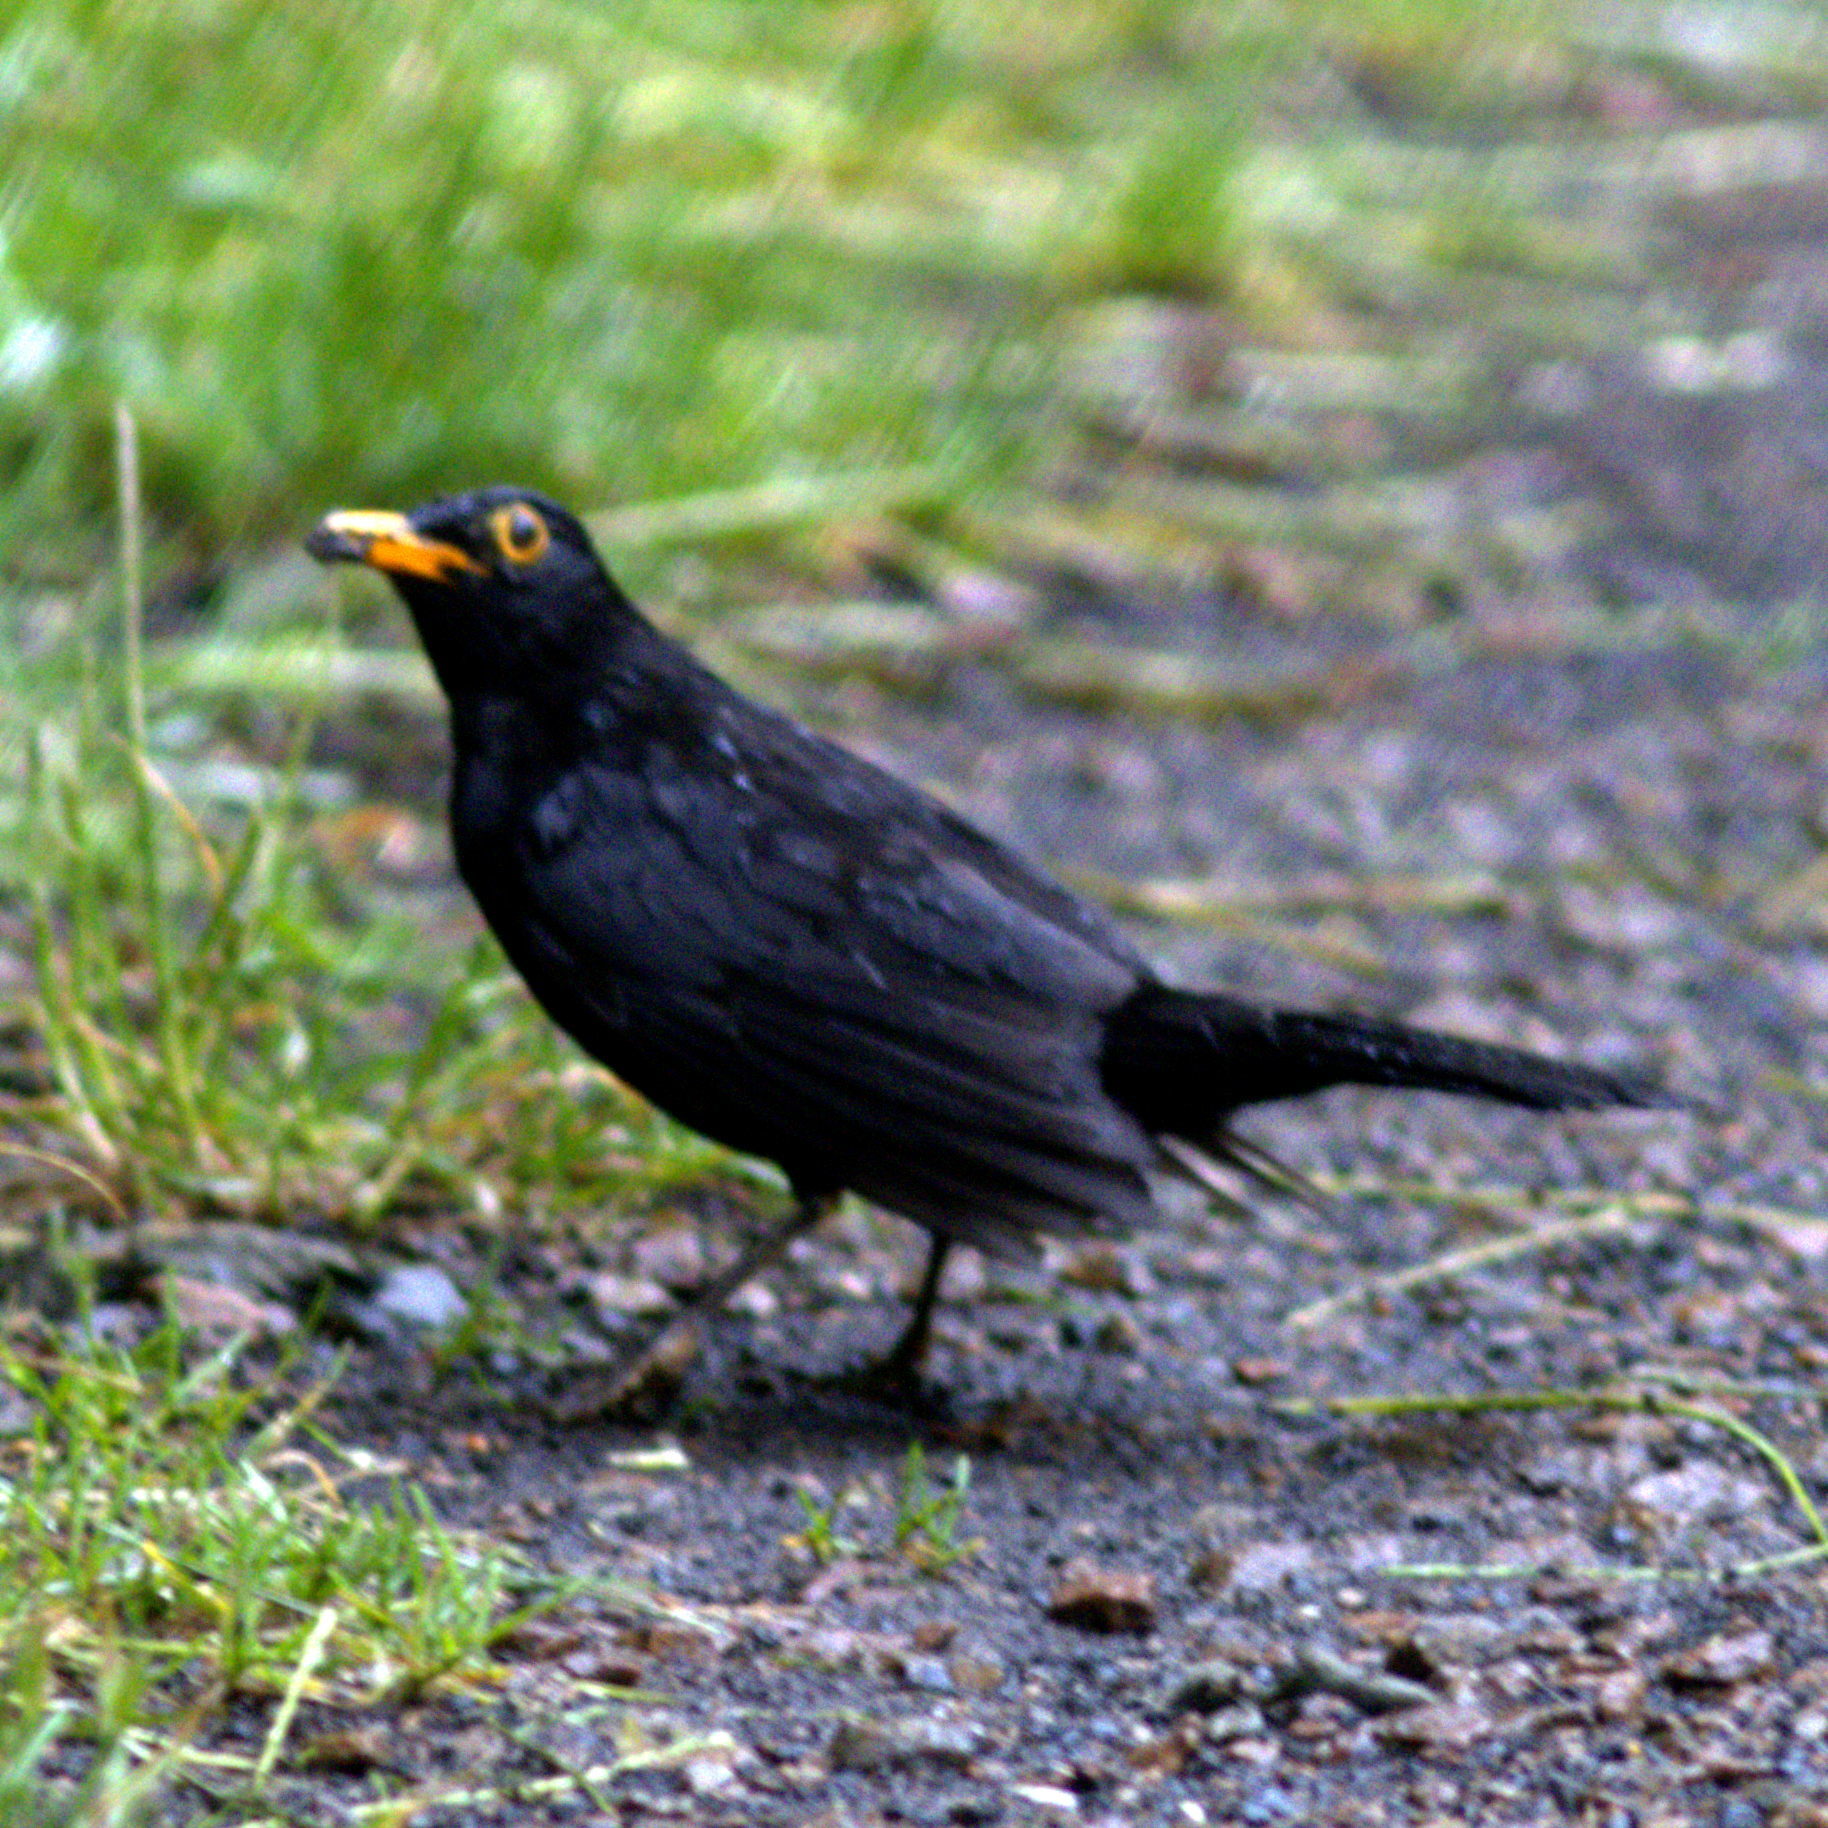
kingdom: Animalia
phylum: Chordata
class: Aves
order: Passeriformes
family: Turdidae
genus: Turdus
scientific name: Turdus merula
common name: Common blackbird
